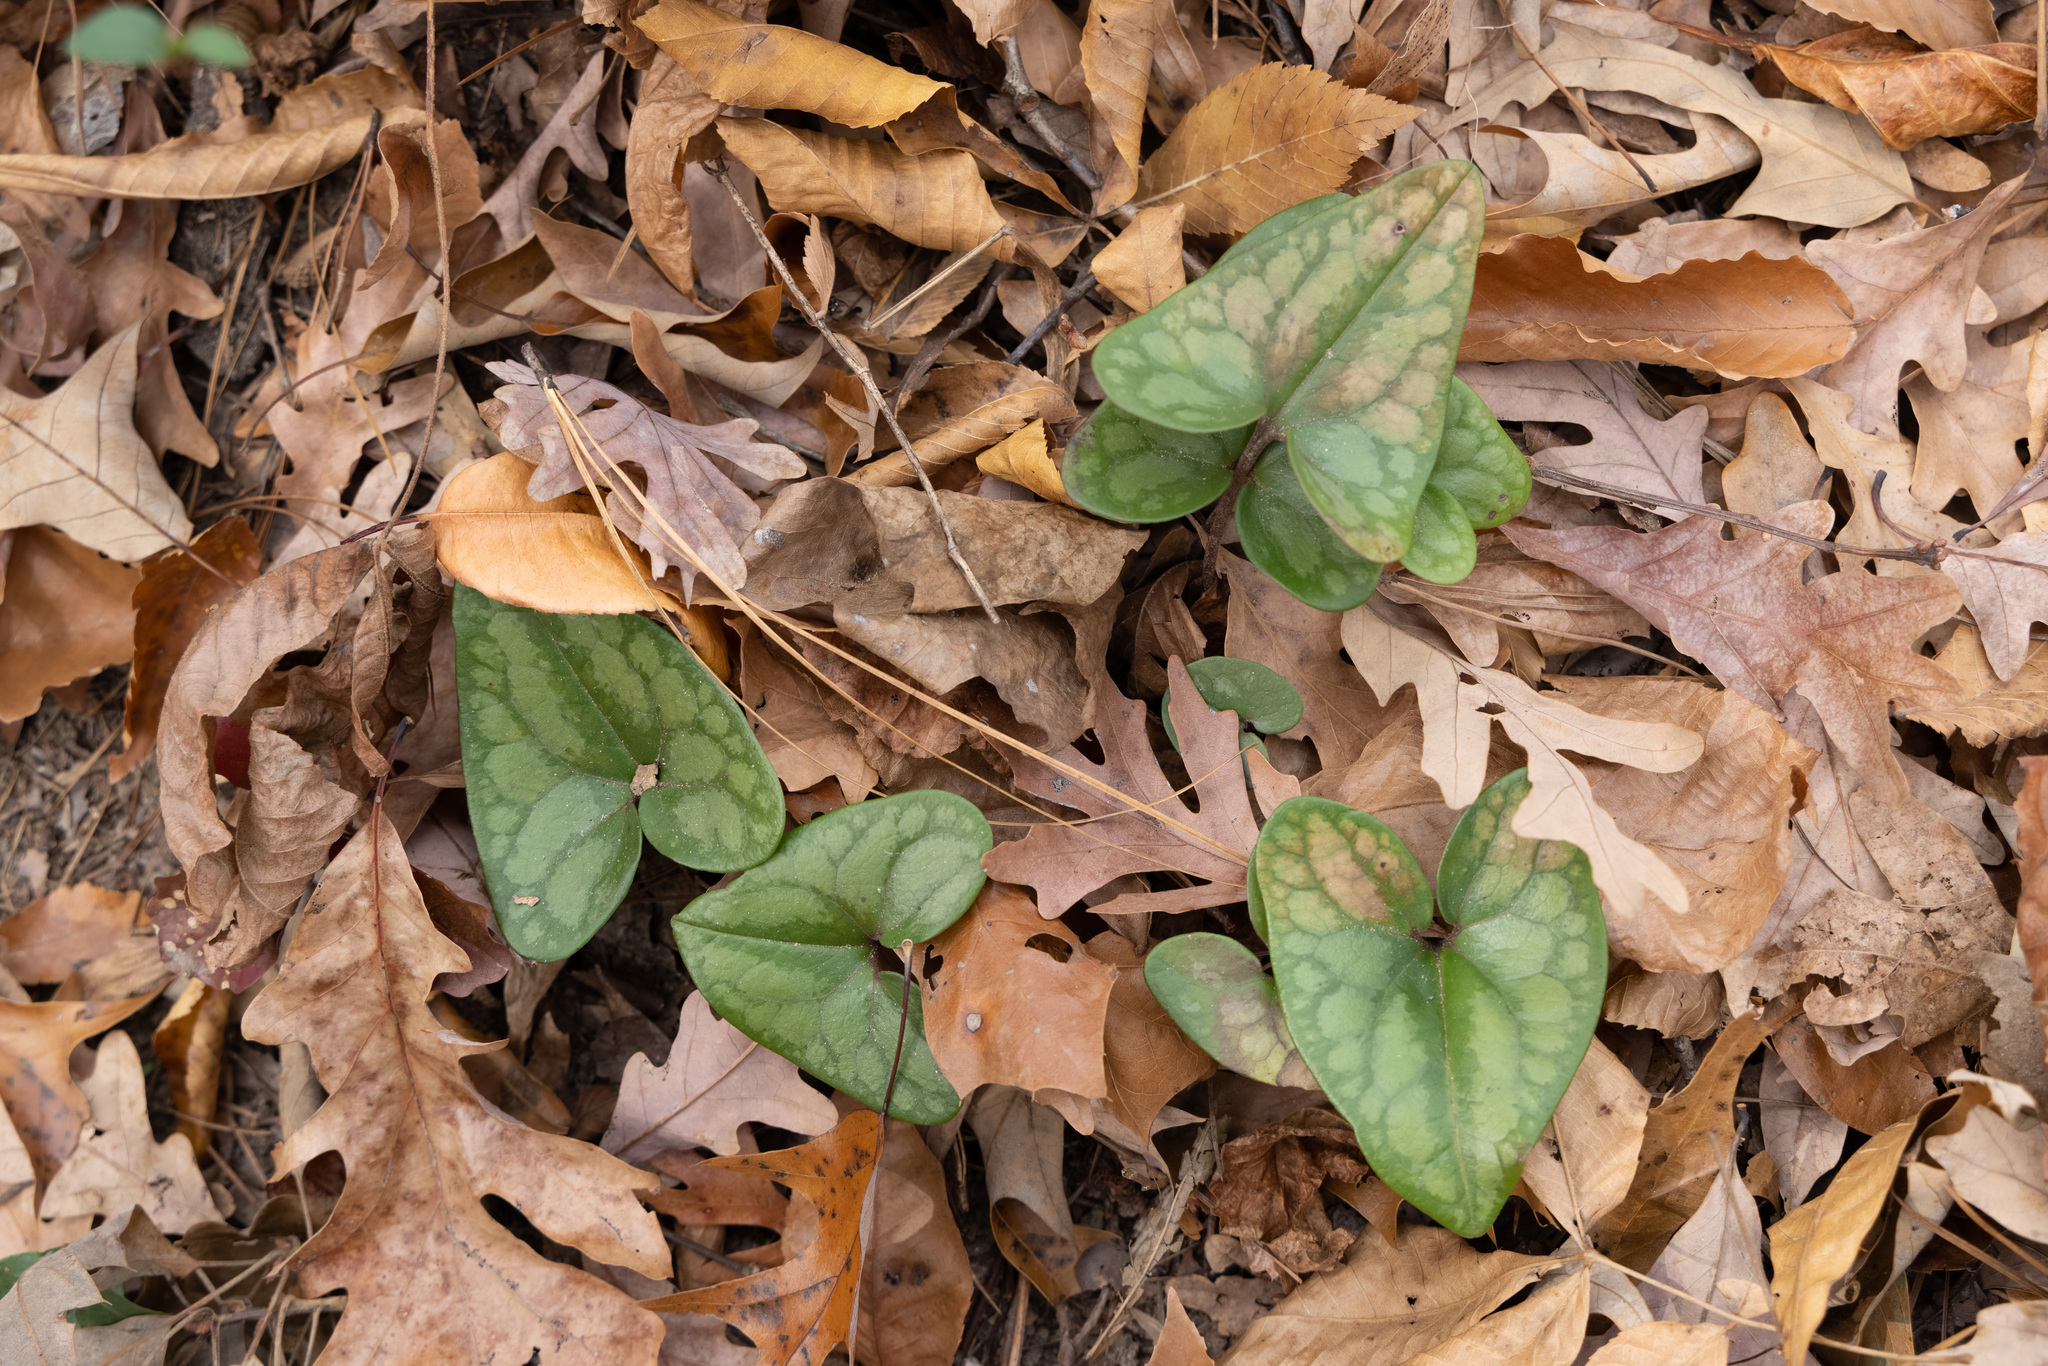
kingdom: Plantae
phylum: Tracheophyta
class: Magnoliopsida
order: Piperales
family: Aristolochiaceae
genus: Hexastylis
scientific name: Hexastylis arifolia
